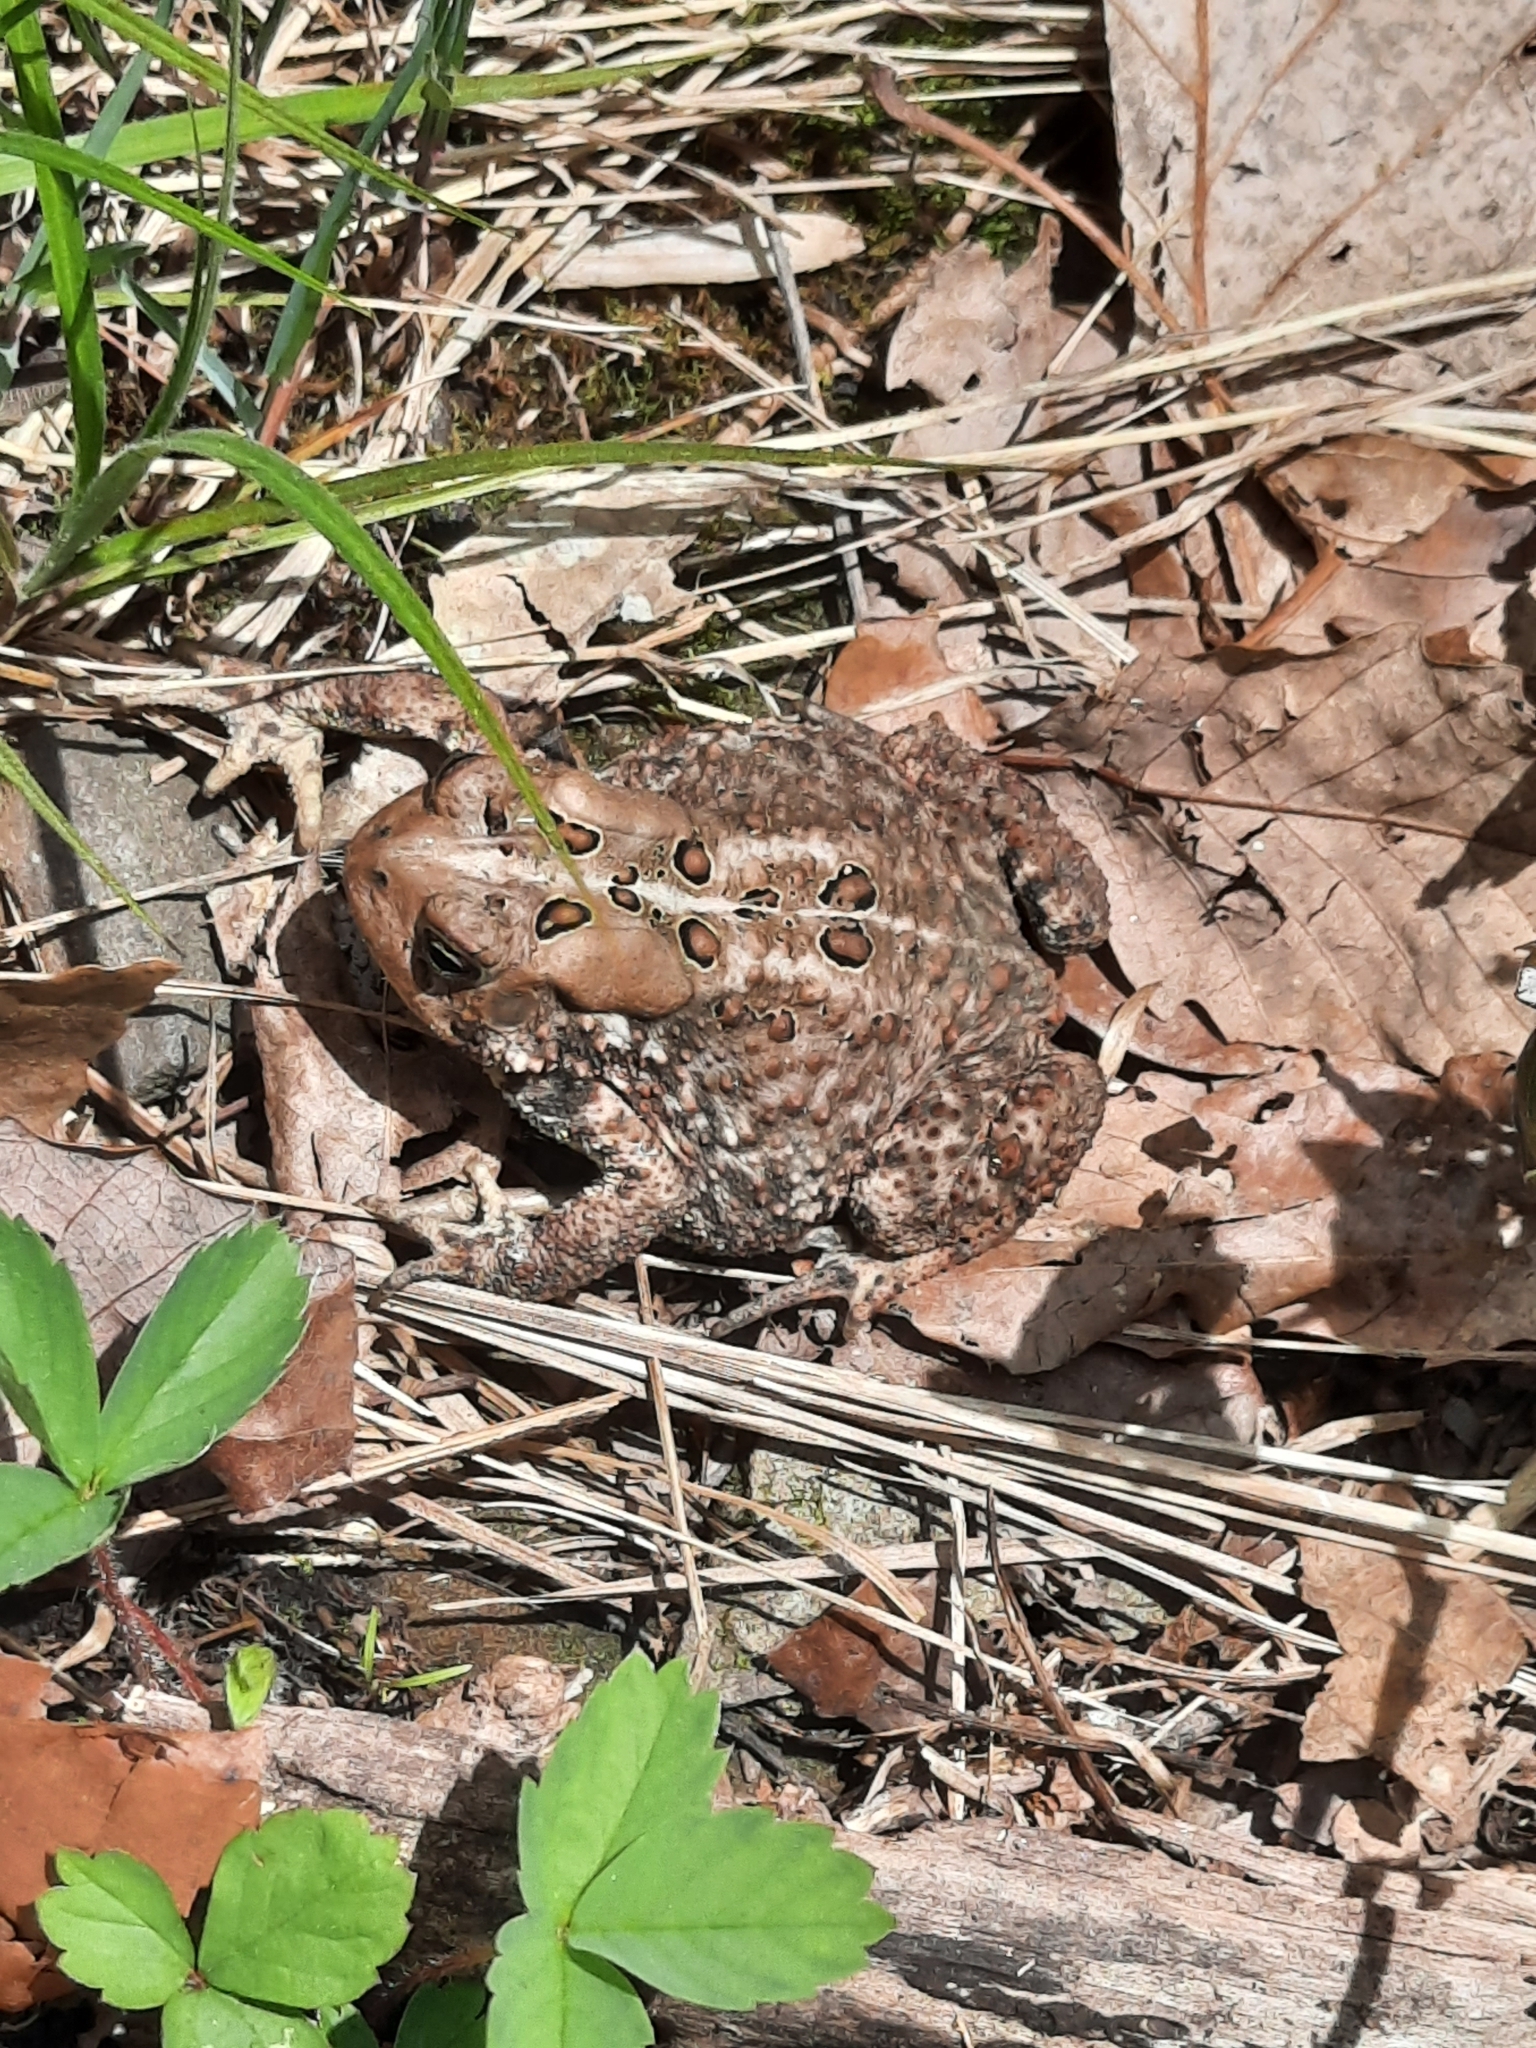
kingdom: Animalia
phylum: Chordata
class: Amphibia
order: Anura
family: Bufonidae
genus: Anaxyrus
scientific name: Anaxyrus americanus
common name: American toad
